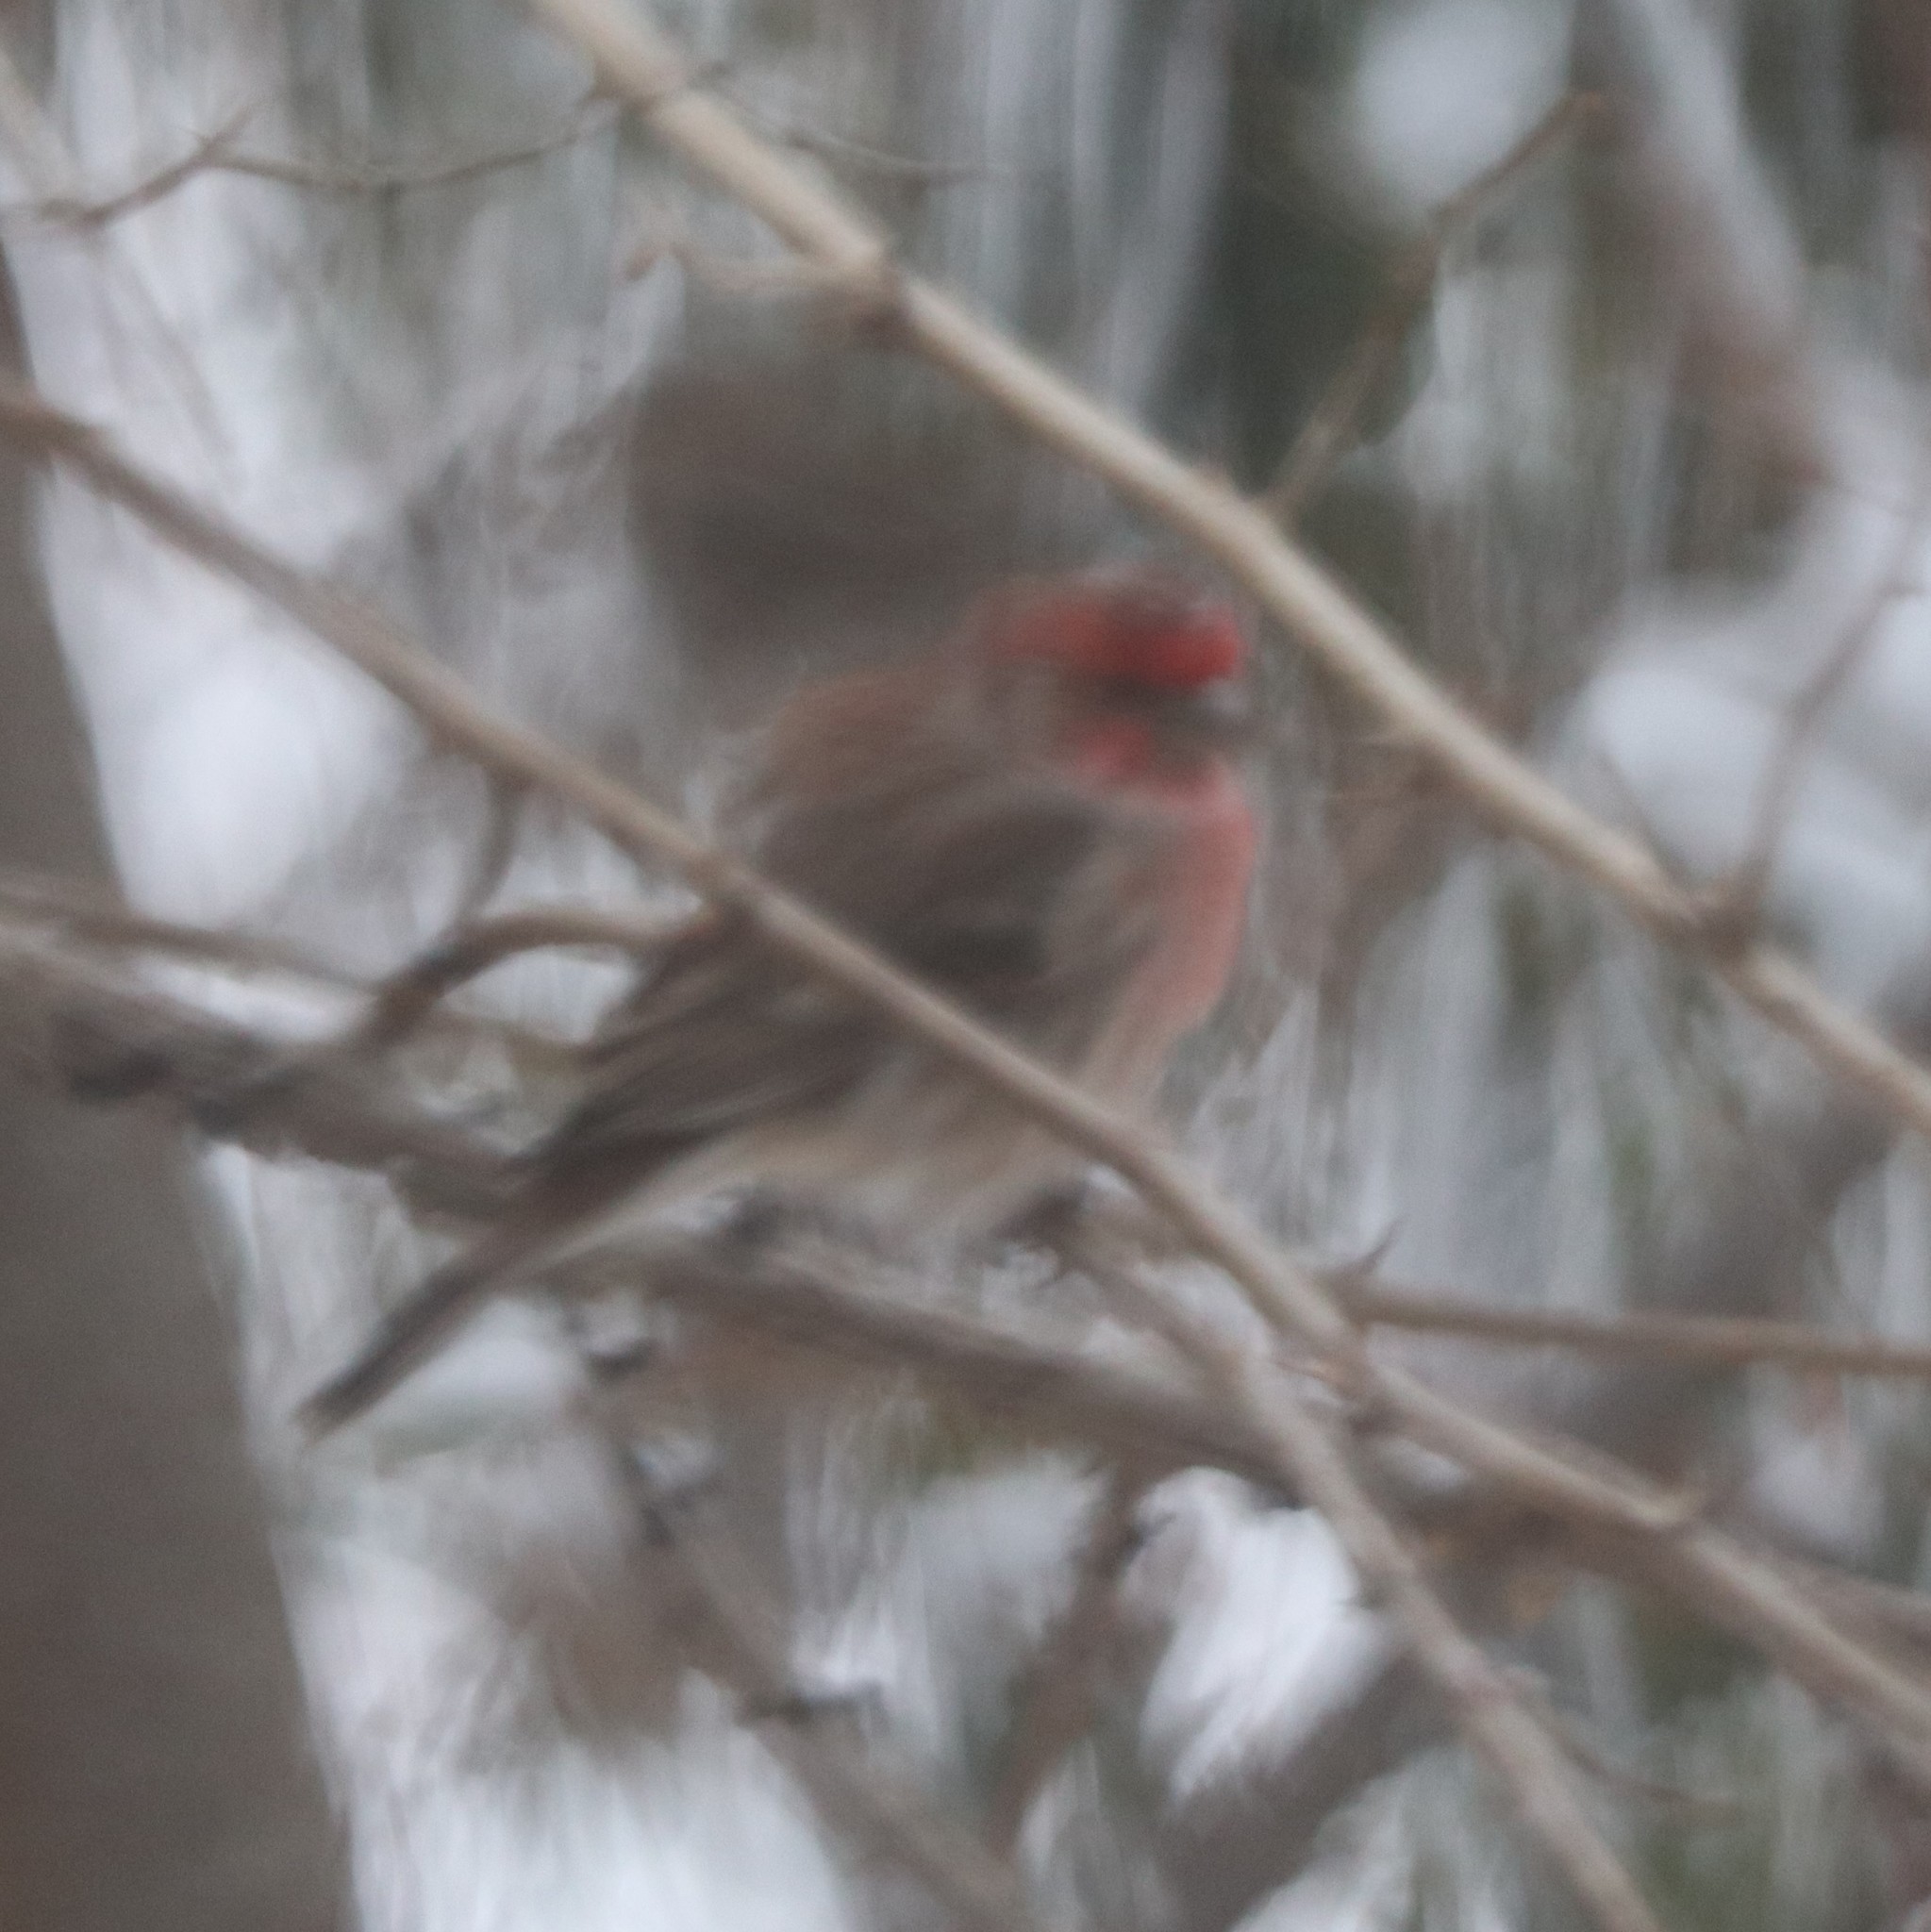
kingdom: Animalia
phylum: Chordata
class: Aves
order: Passeriformes
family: Fringillidae
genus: Haemorhous
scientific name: Haemorhous mexicanus
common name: House finch
